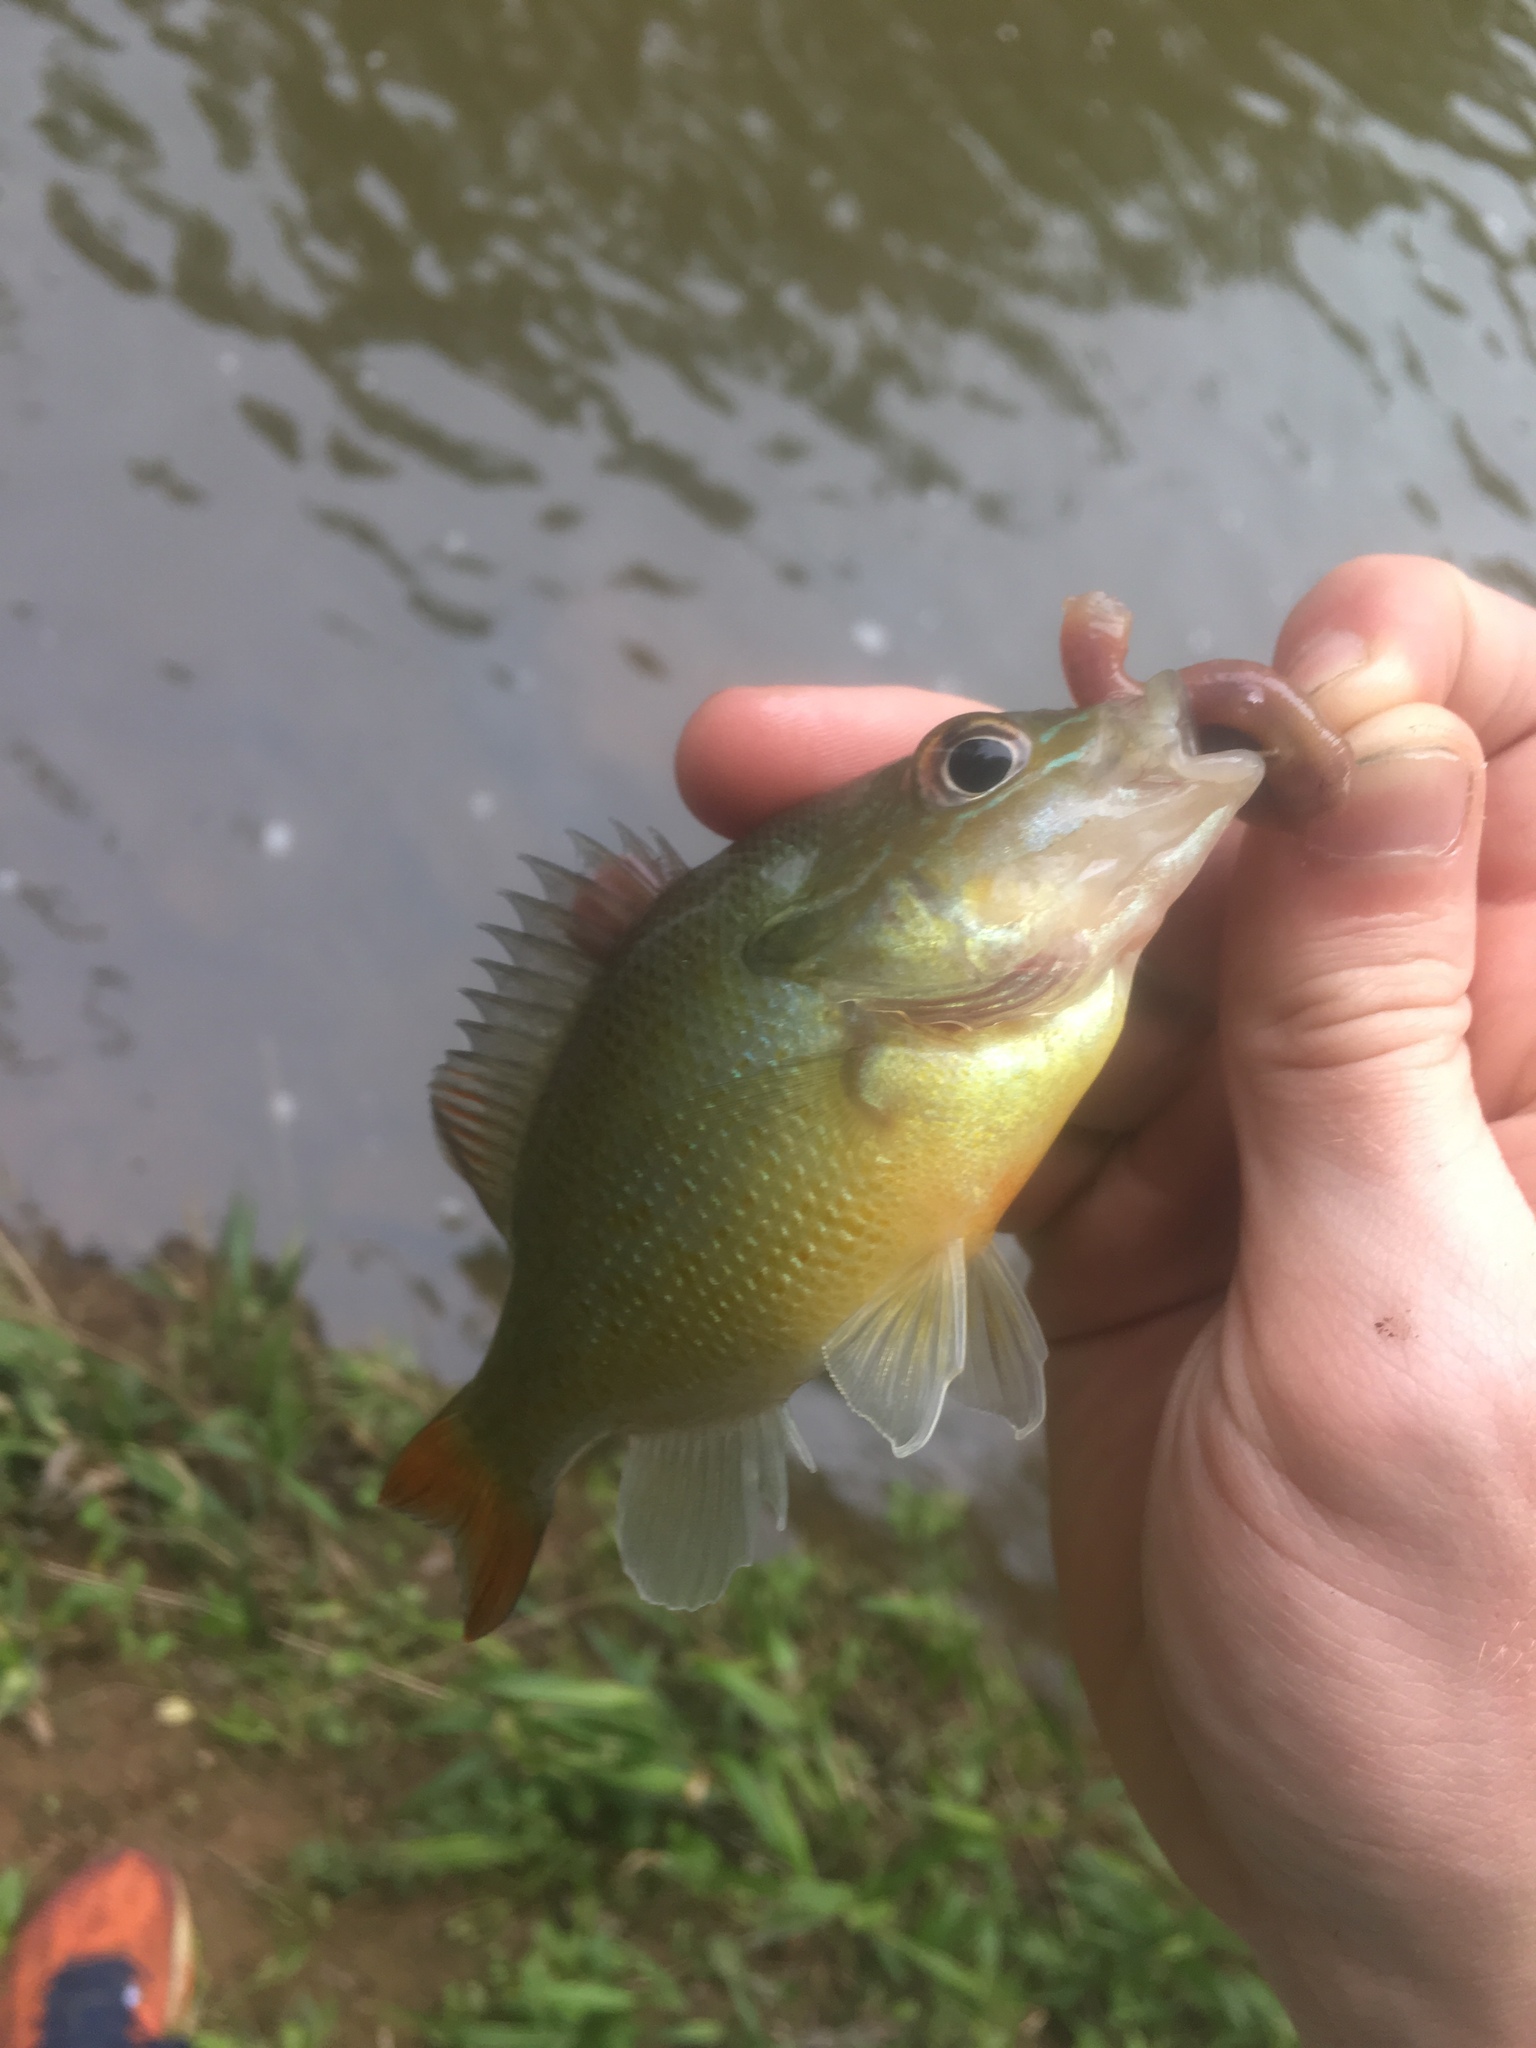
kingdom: Animalia
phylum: Chordata
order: Perciformes
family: Centrarchidae
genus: Lepomis
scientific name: Lepomis auritus
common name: Redbreast sunfish
